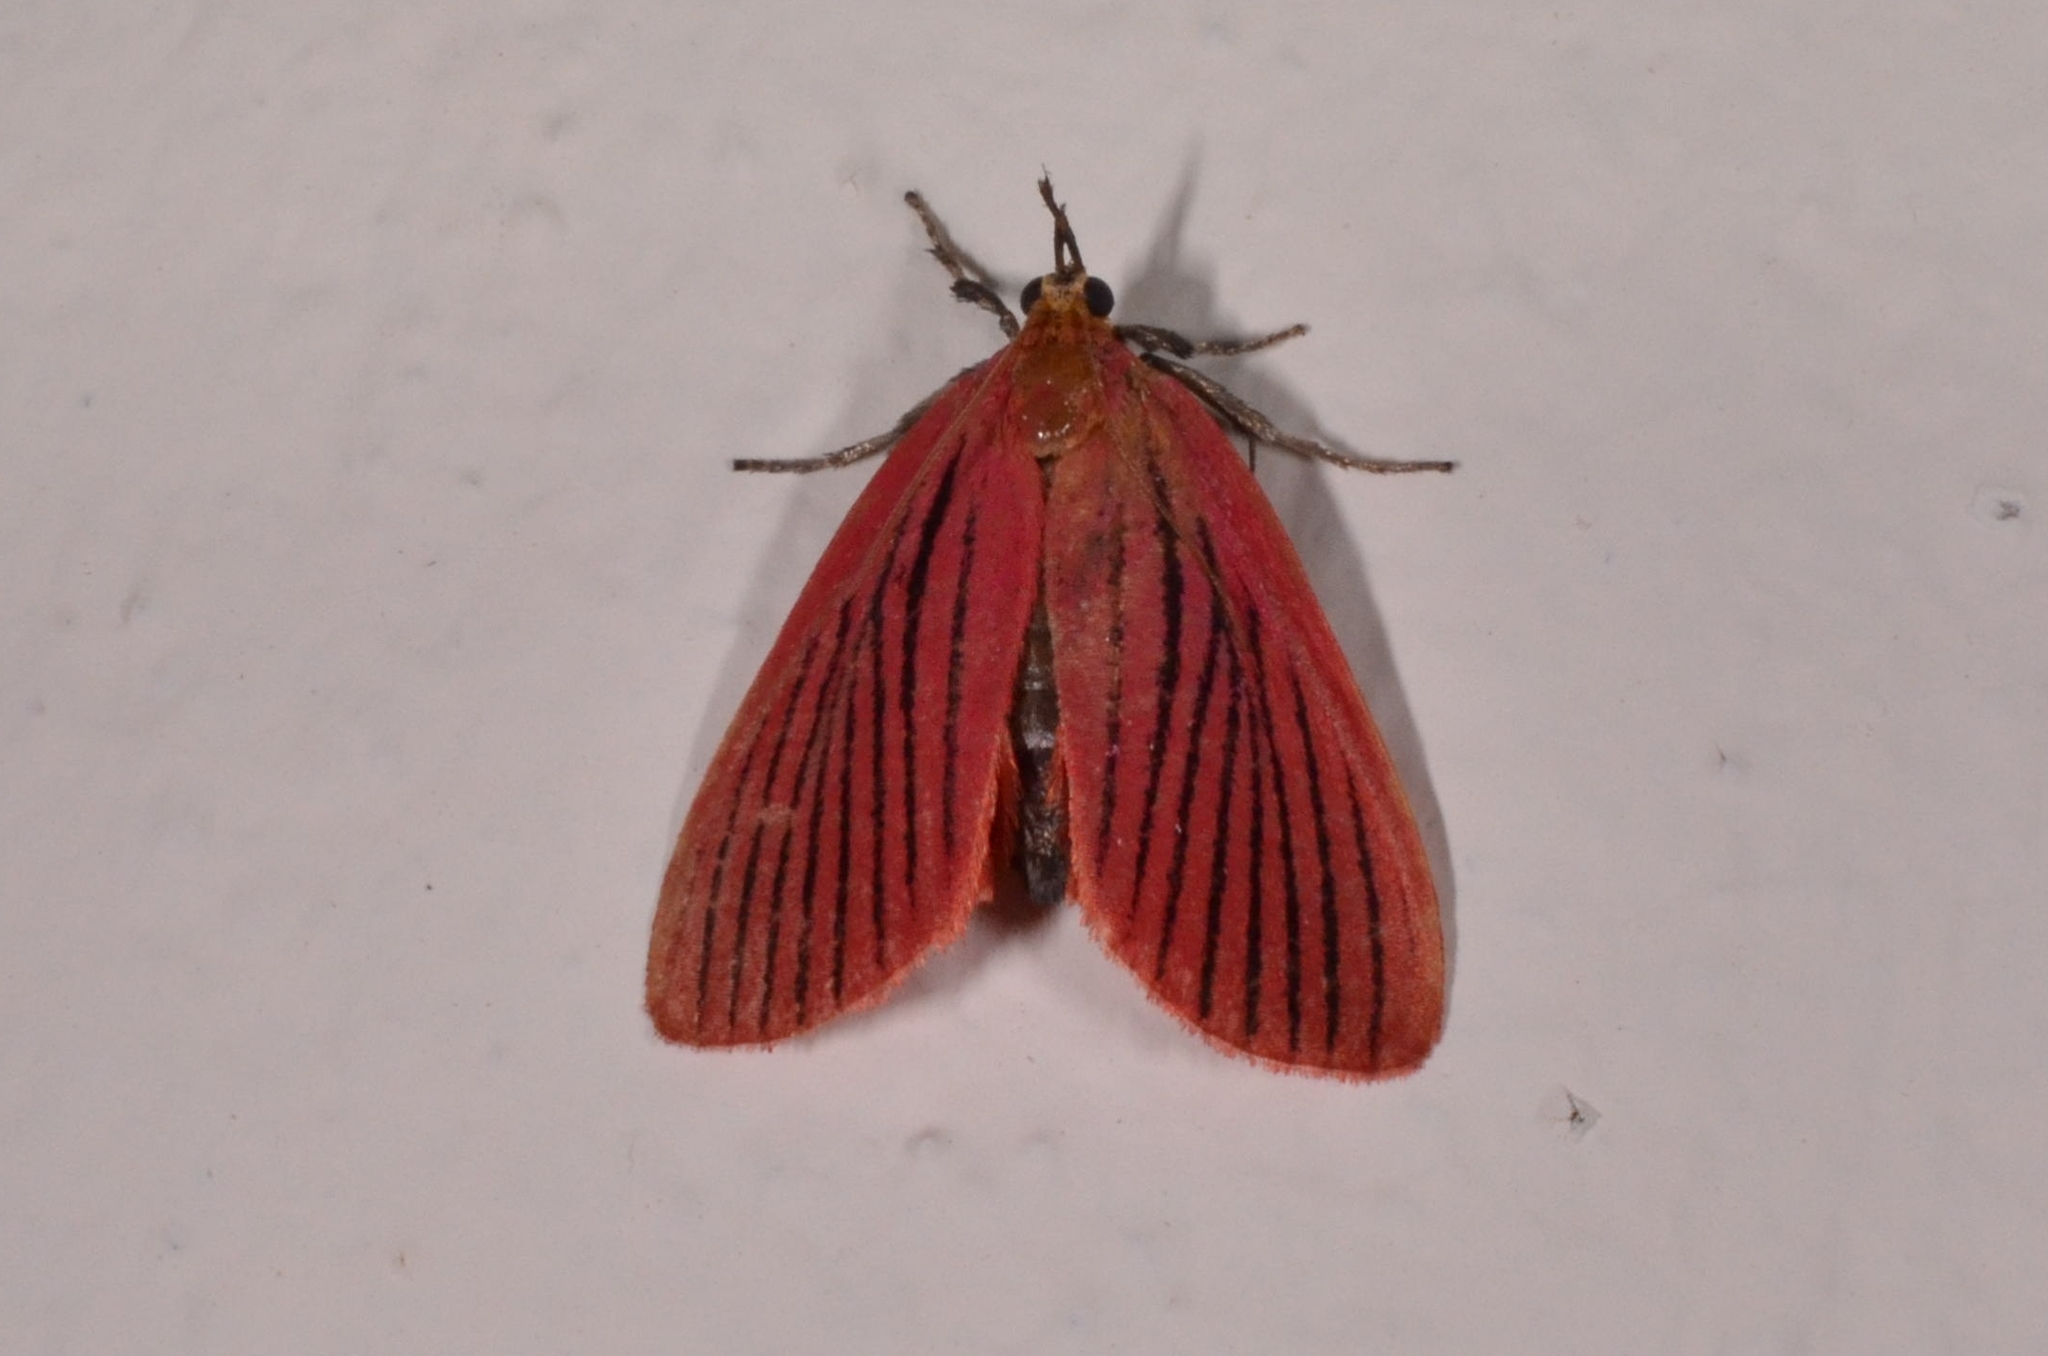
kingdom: Animalia
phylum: Arthropoda
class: Insecta
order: Lepidoptera
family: Pyralidae
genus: Arctioblepsis
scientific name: Arctioblepsis rubida
